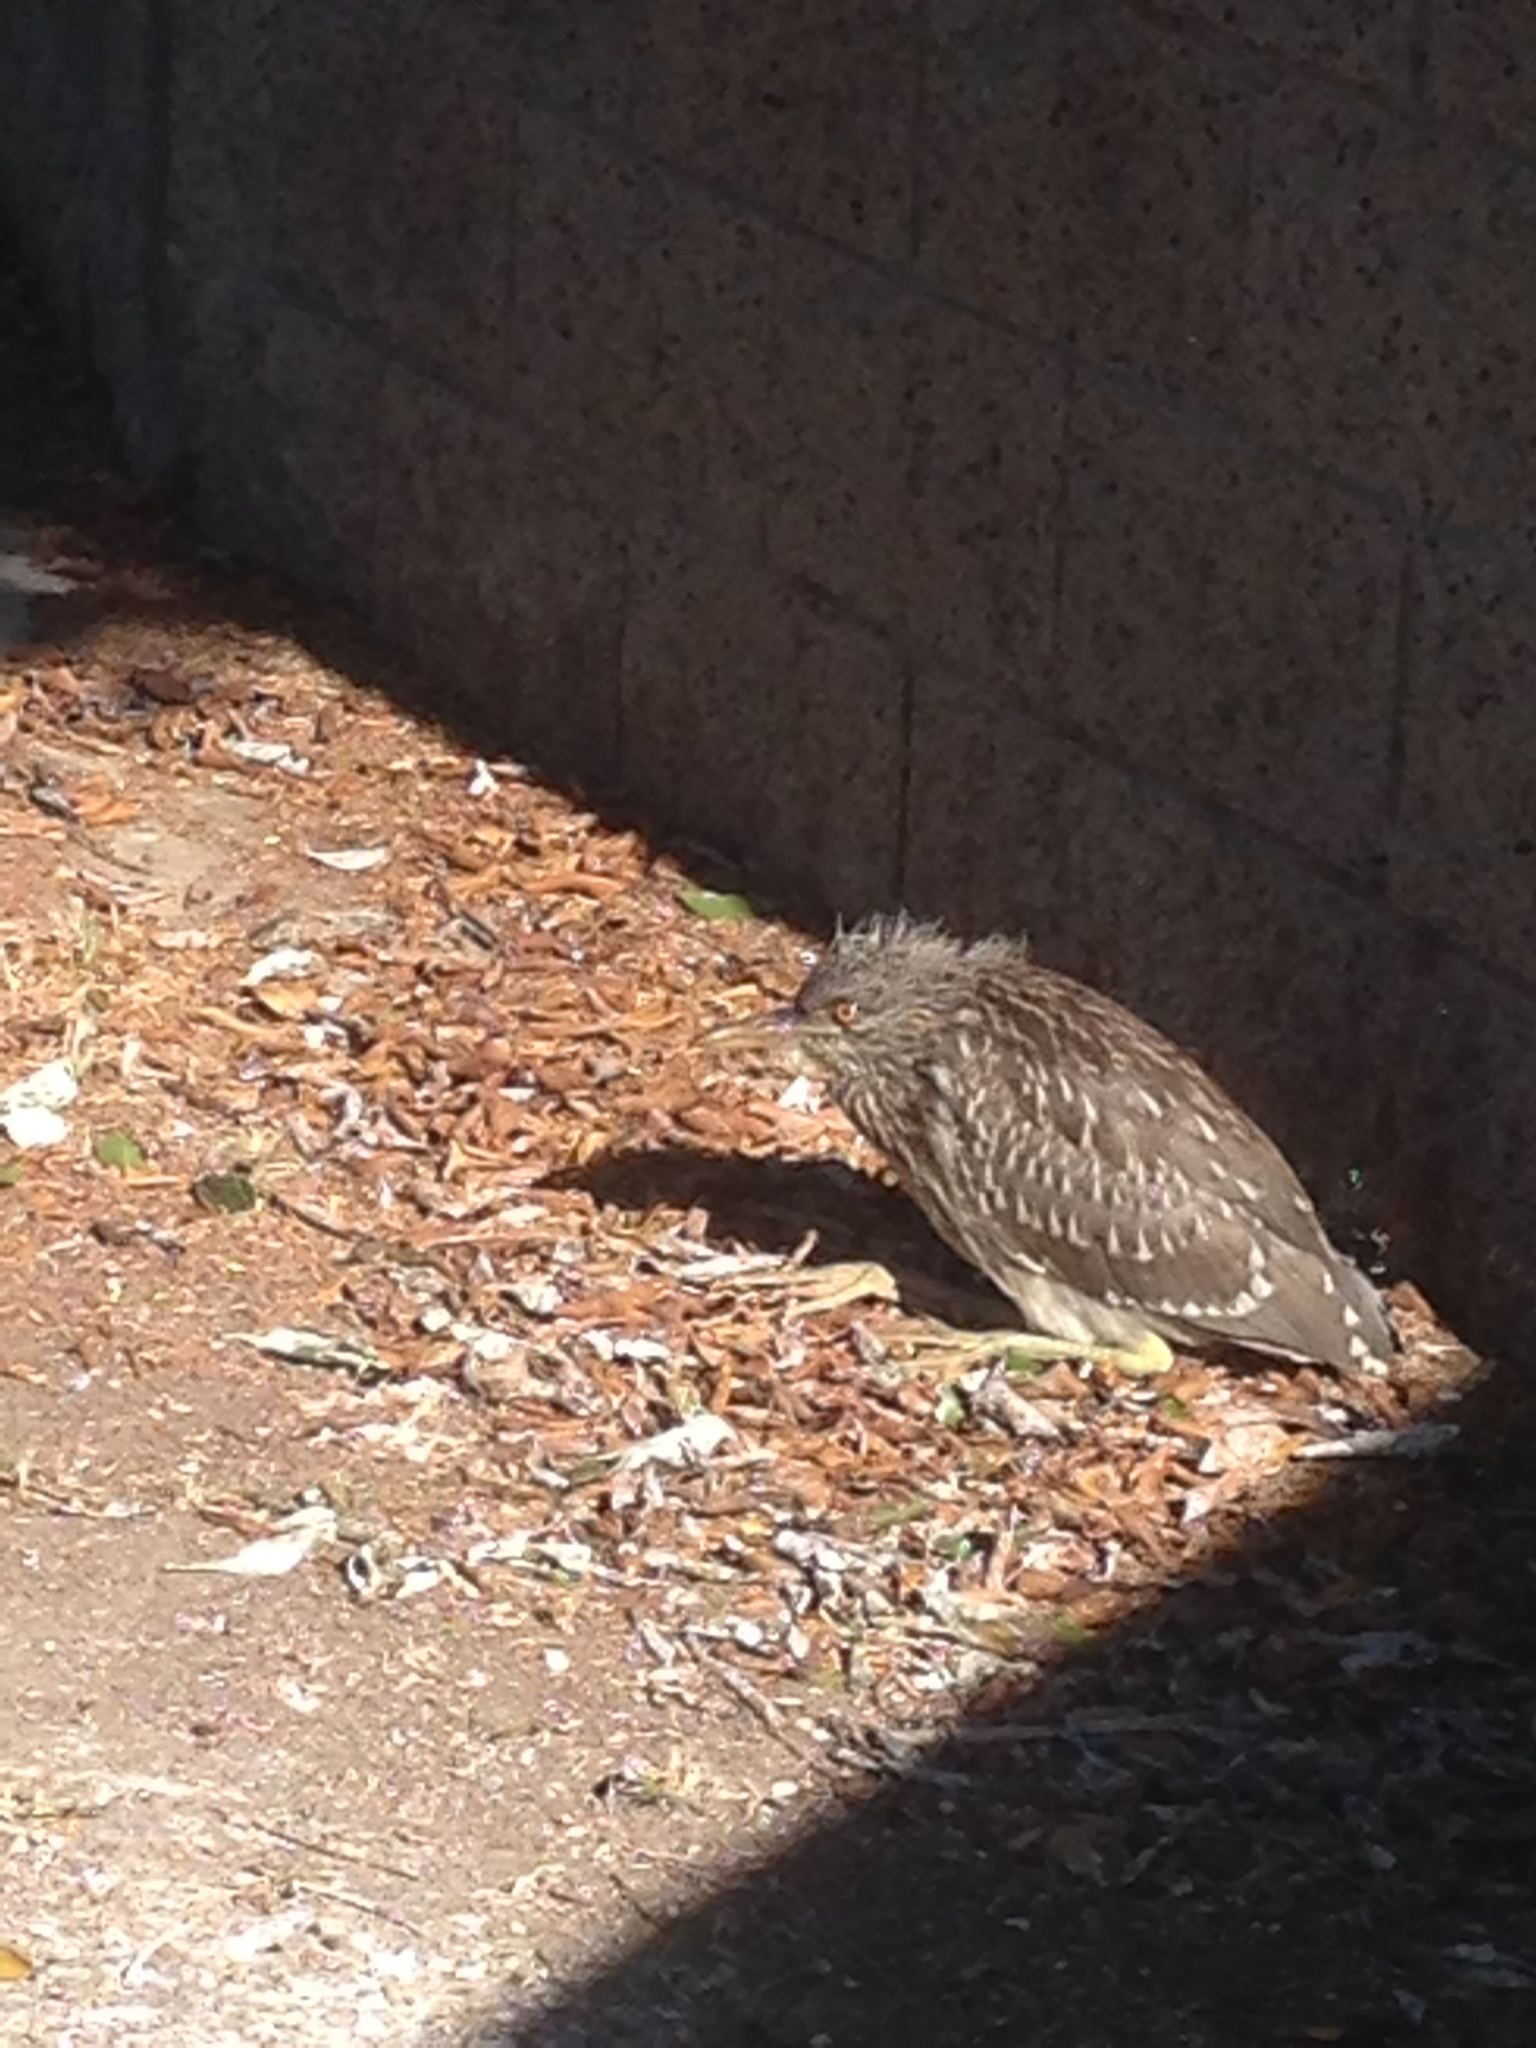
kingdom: Animalia
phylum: Chordata
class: Aves
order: Pelecaniformes
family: Ardeidae
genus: Nycticorax
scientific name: Nycticorax nycticorax
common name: Black-crowned night heron
